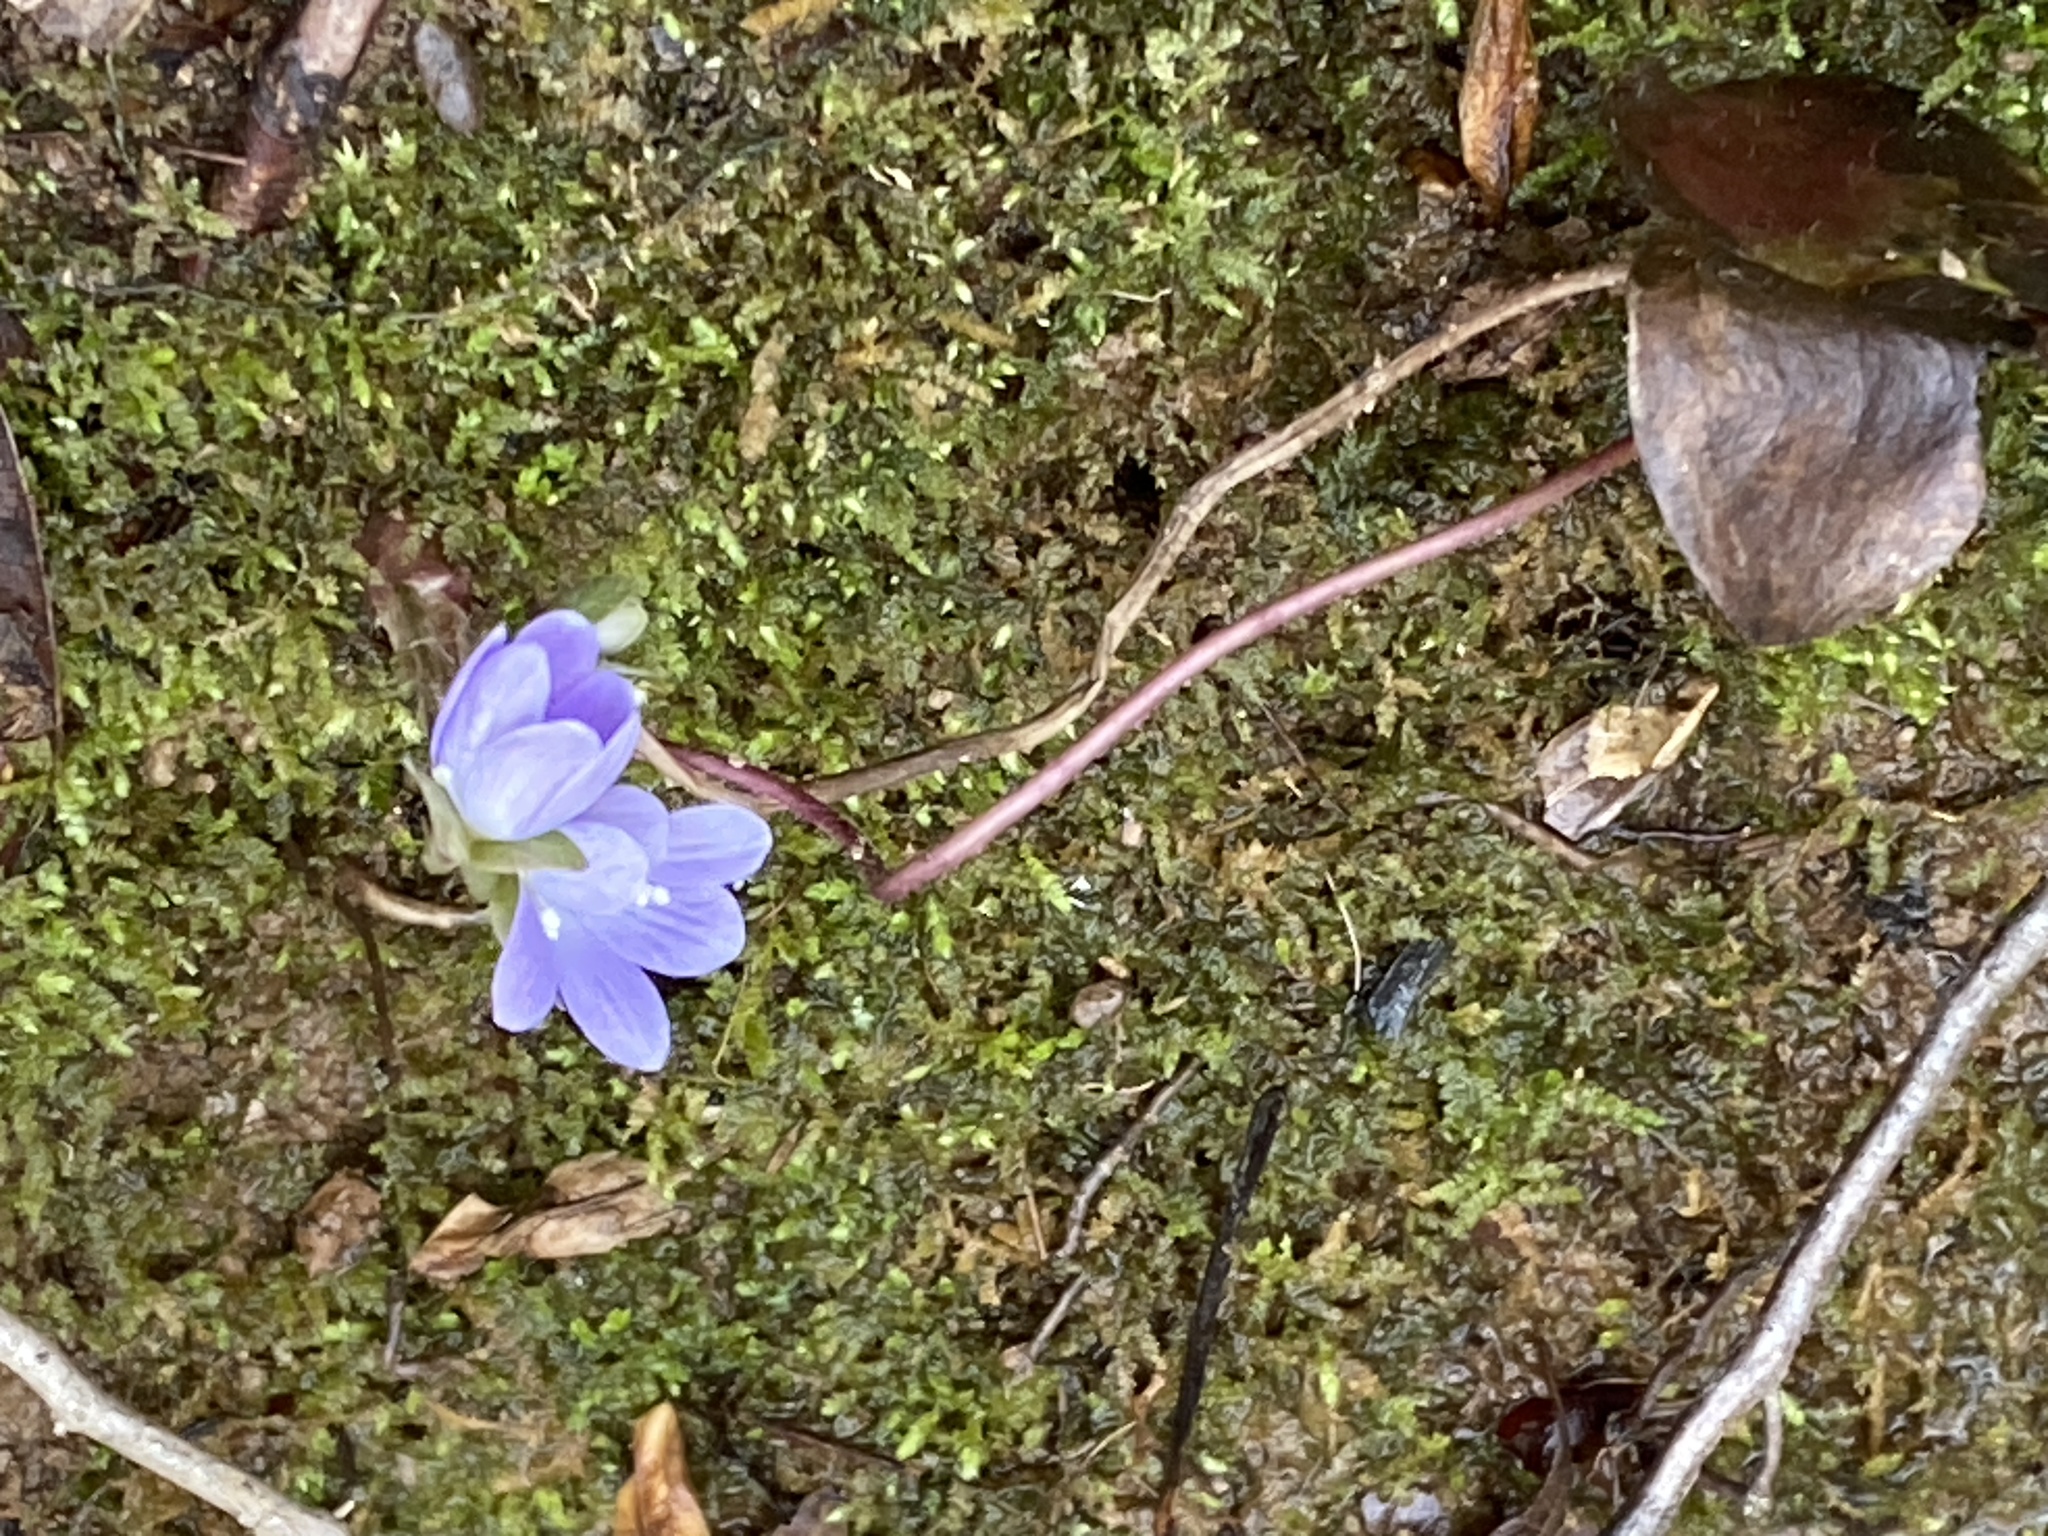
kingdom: Plantae
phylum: Tracheophyta
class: Magnoliopsida
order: Ranunculales
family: Ranunculaceae
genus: Hepatica
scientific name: Hepatica americana
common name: American hepatica
